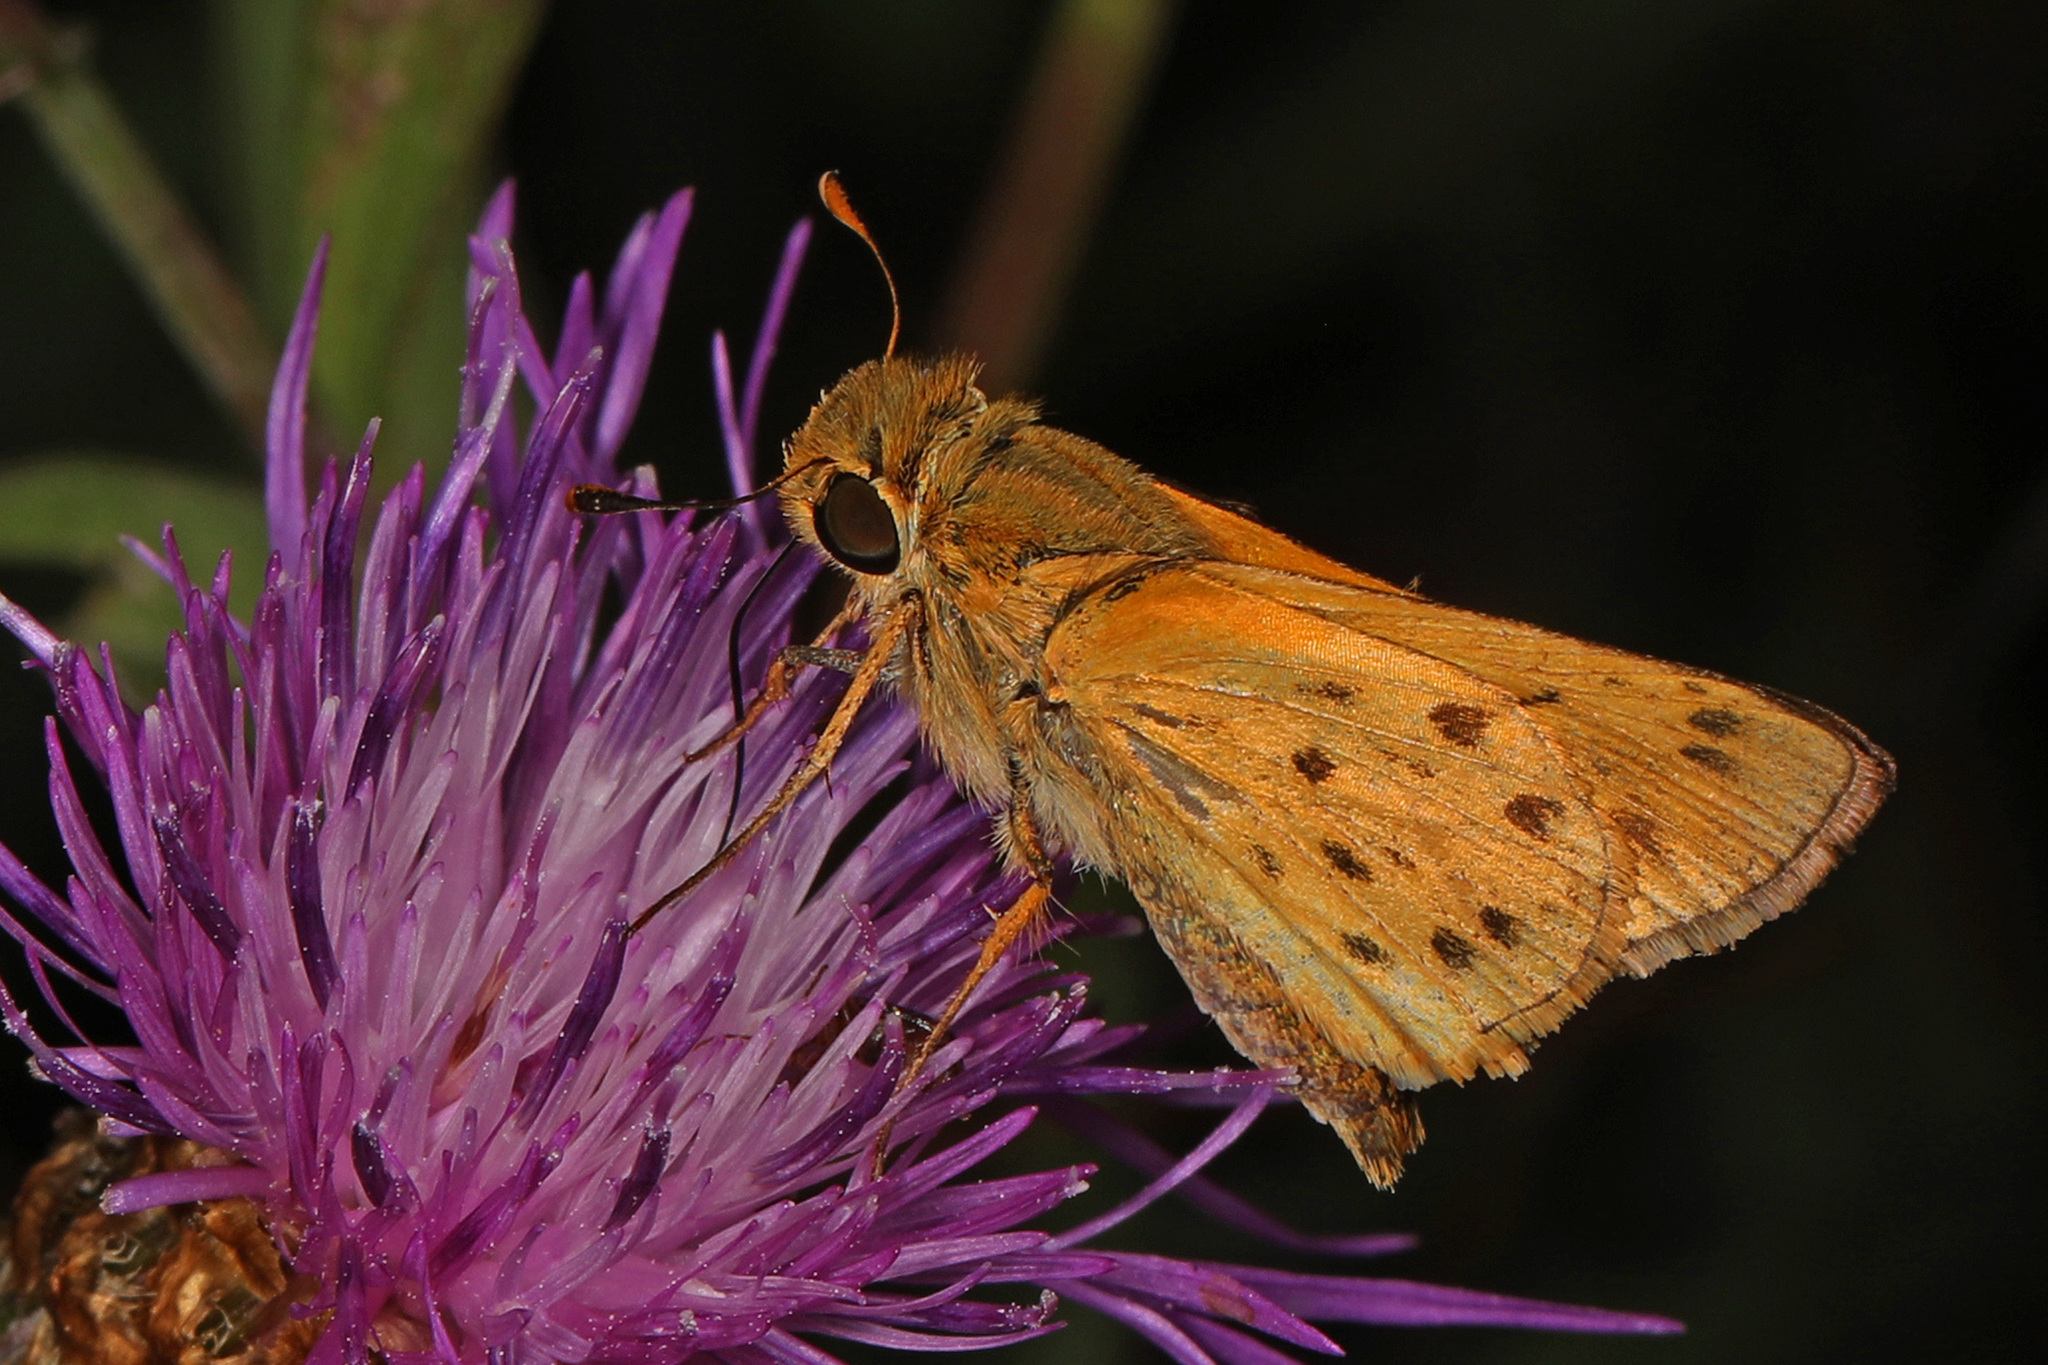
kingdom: Animalia
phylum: Arthropoda
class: Insecta
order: Lepidoptera
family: Hesperiidae
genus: Hylephila
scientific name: Hylephila phyleus
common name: Fiery skipper
